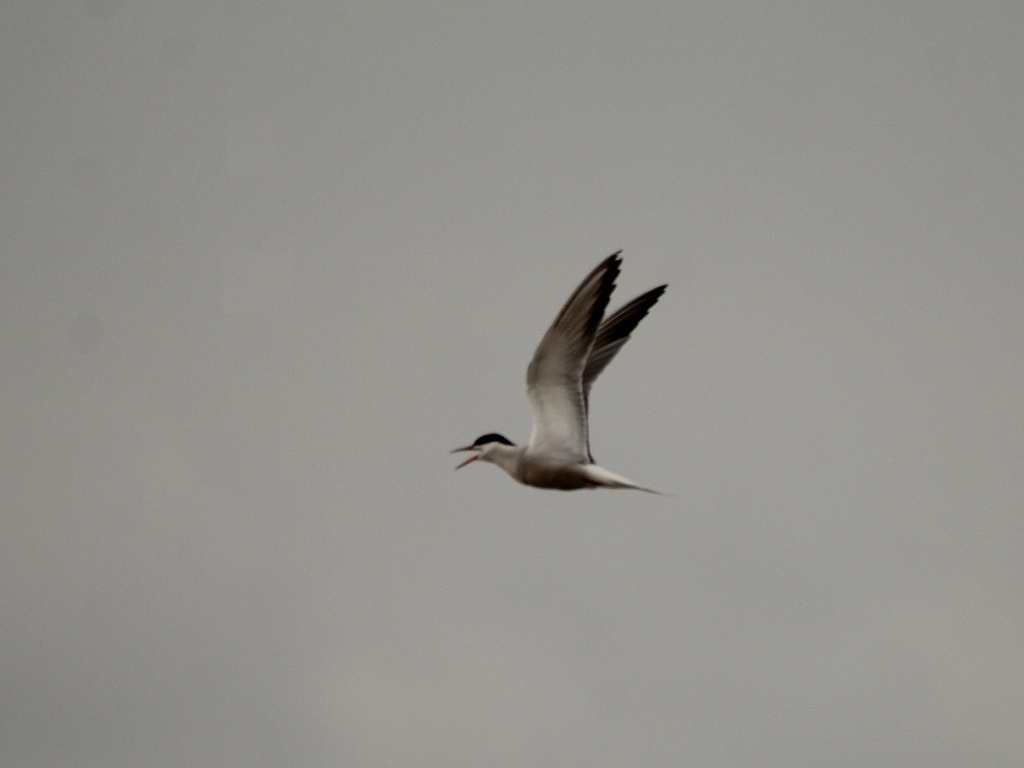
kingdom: Animalia
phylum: Chordata
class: Aves
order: Charadriiformes
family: Laridae
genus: Sterna
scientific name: Sterna hirundo
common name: Common tern
